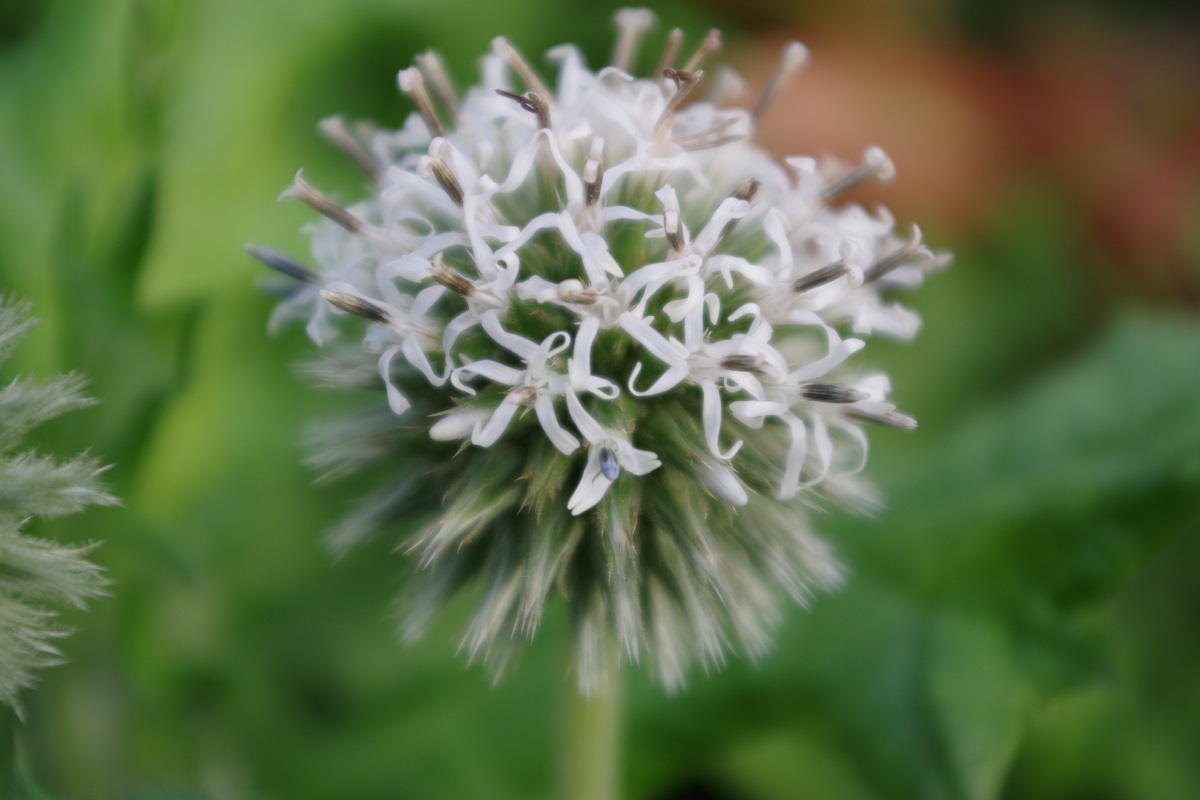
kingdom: Plantae
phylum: Tracheophyta
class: Magnoliopsida
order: Asterales
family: Asteraceae
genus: Echinops
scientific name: Echinops sphaerocephalus
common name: Glandular globe-thistle
